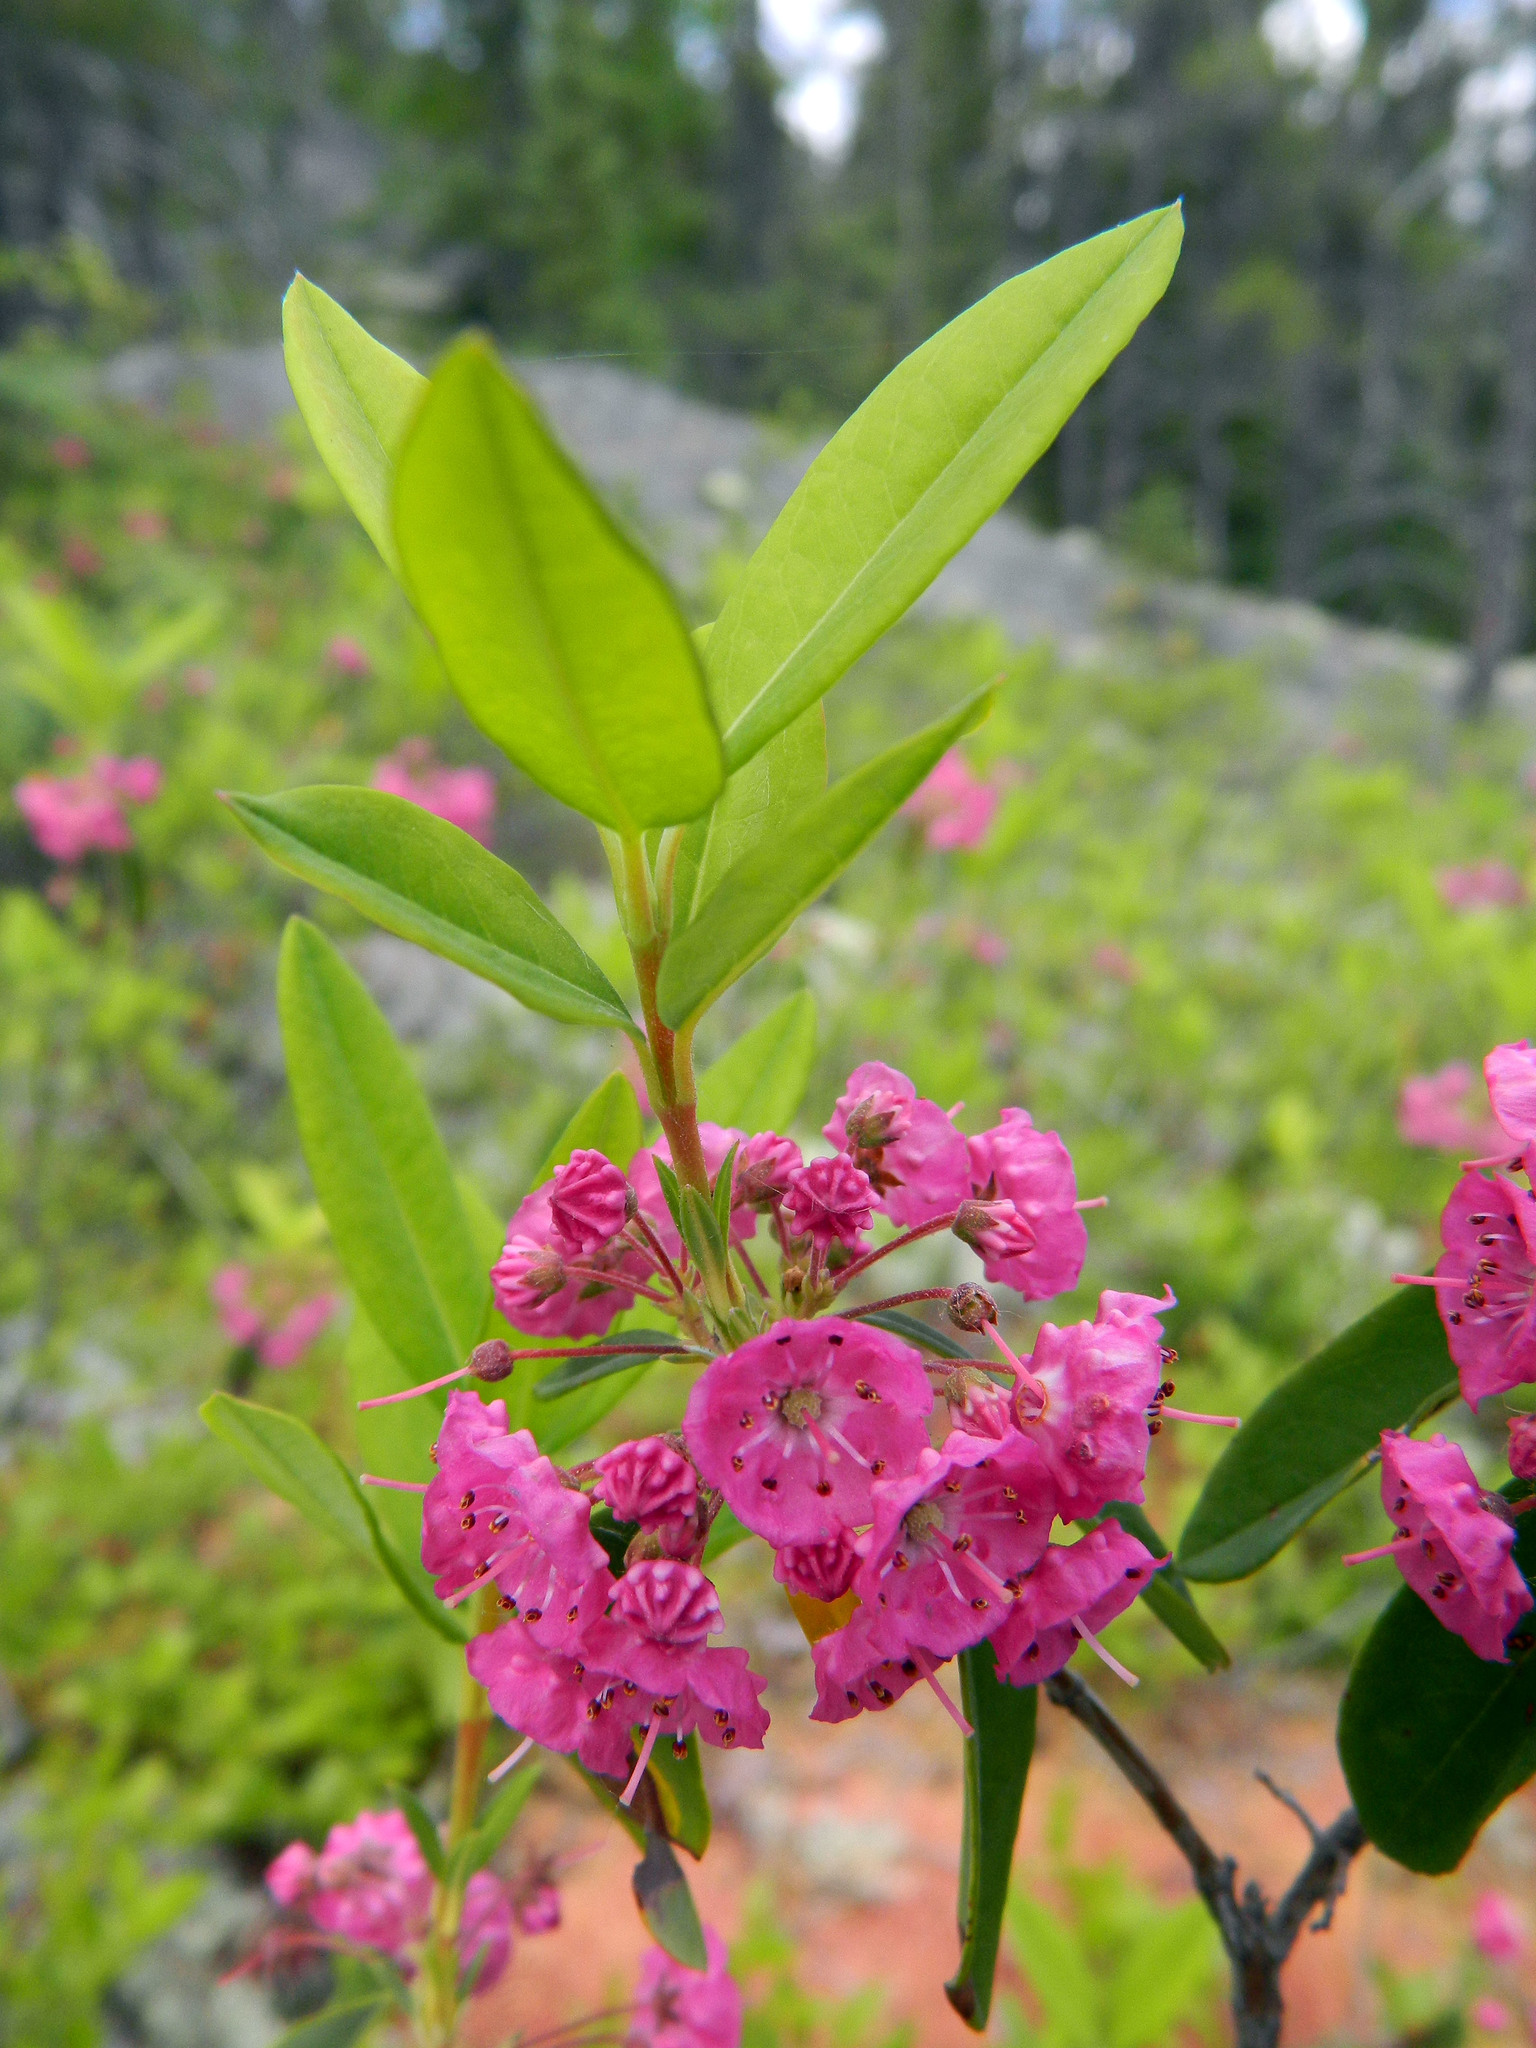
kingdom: Plantae
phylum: Tracheophyta
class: Magnoliopsida
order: Ericales
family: Ericaceae
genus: Kalmia
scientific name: Kalmia angustifolia
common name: Sheep-laurel
